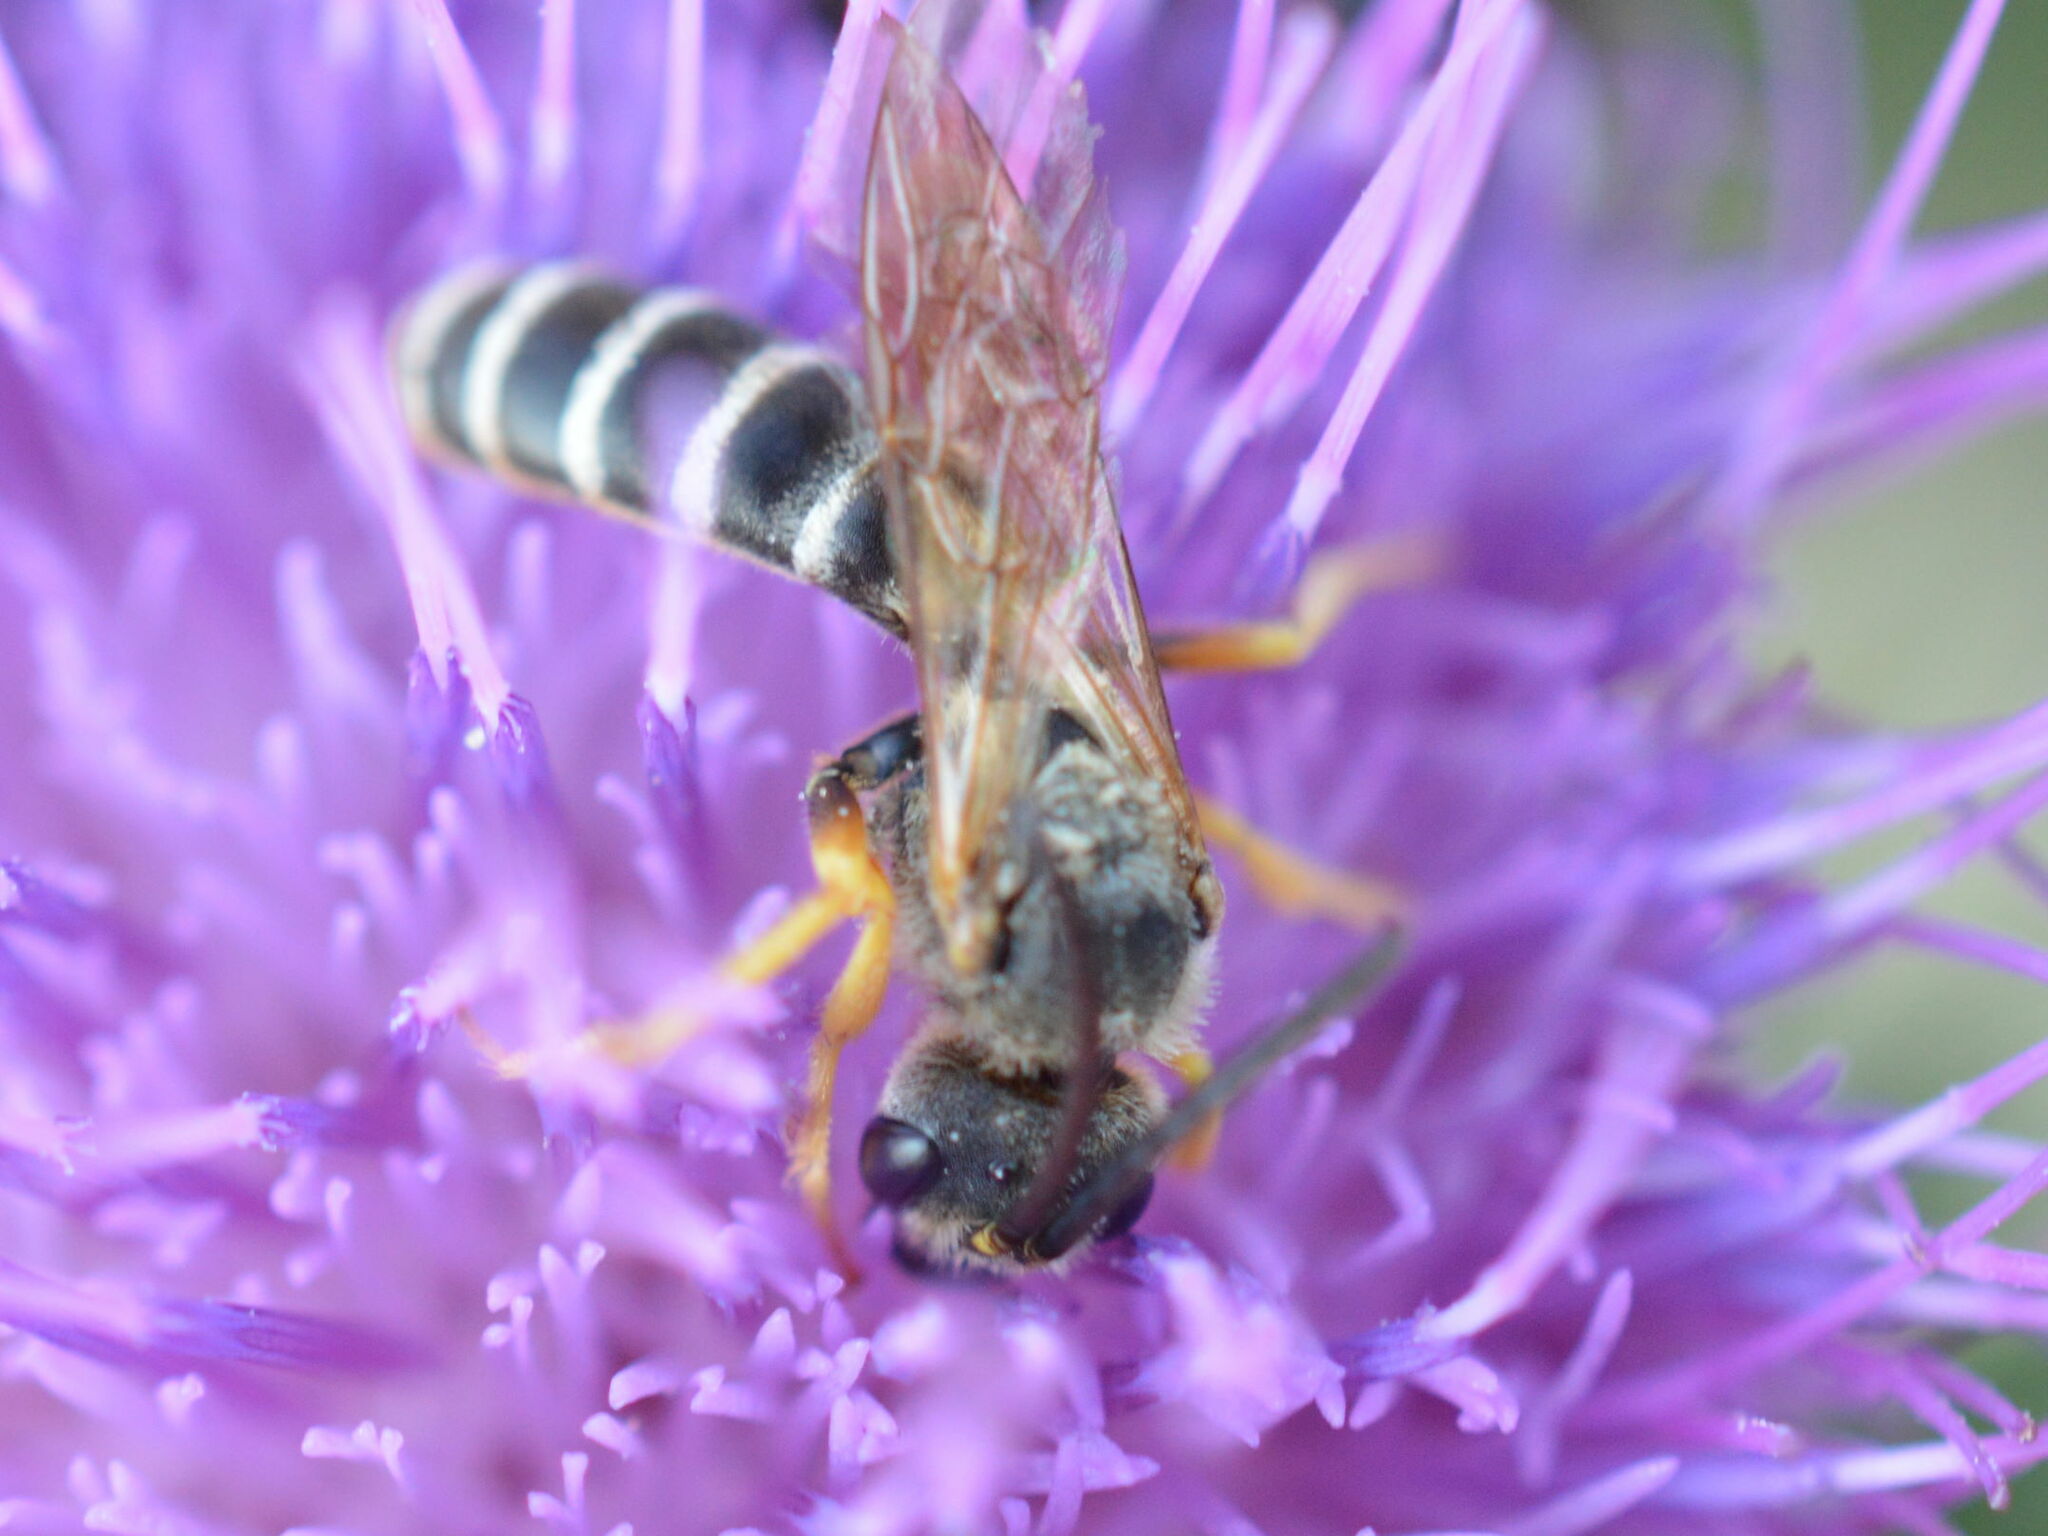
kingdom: Animalia
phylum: Arthropoda
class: Insecta
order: Hymenoptera
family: Halictidae
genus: Halictus
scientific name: Halictus scabiosae
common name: Great banded furrow bee
